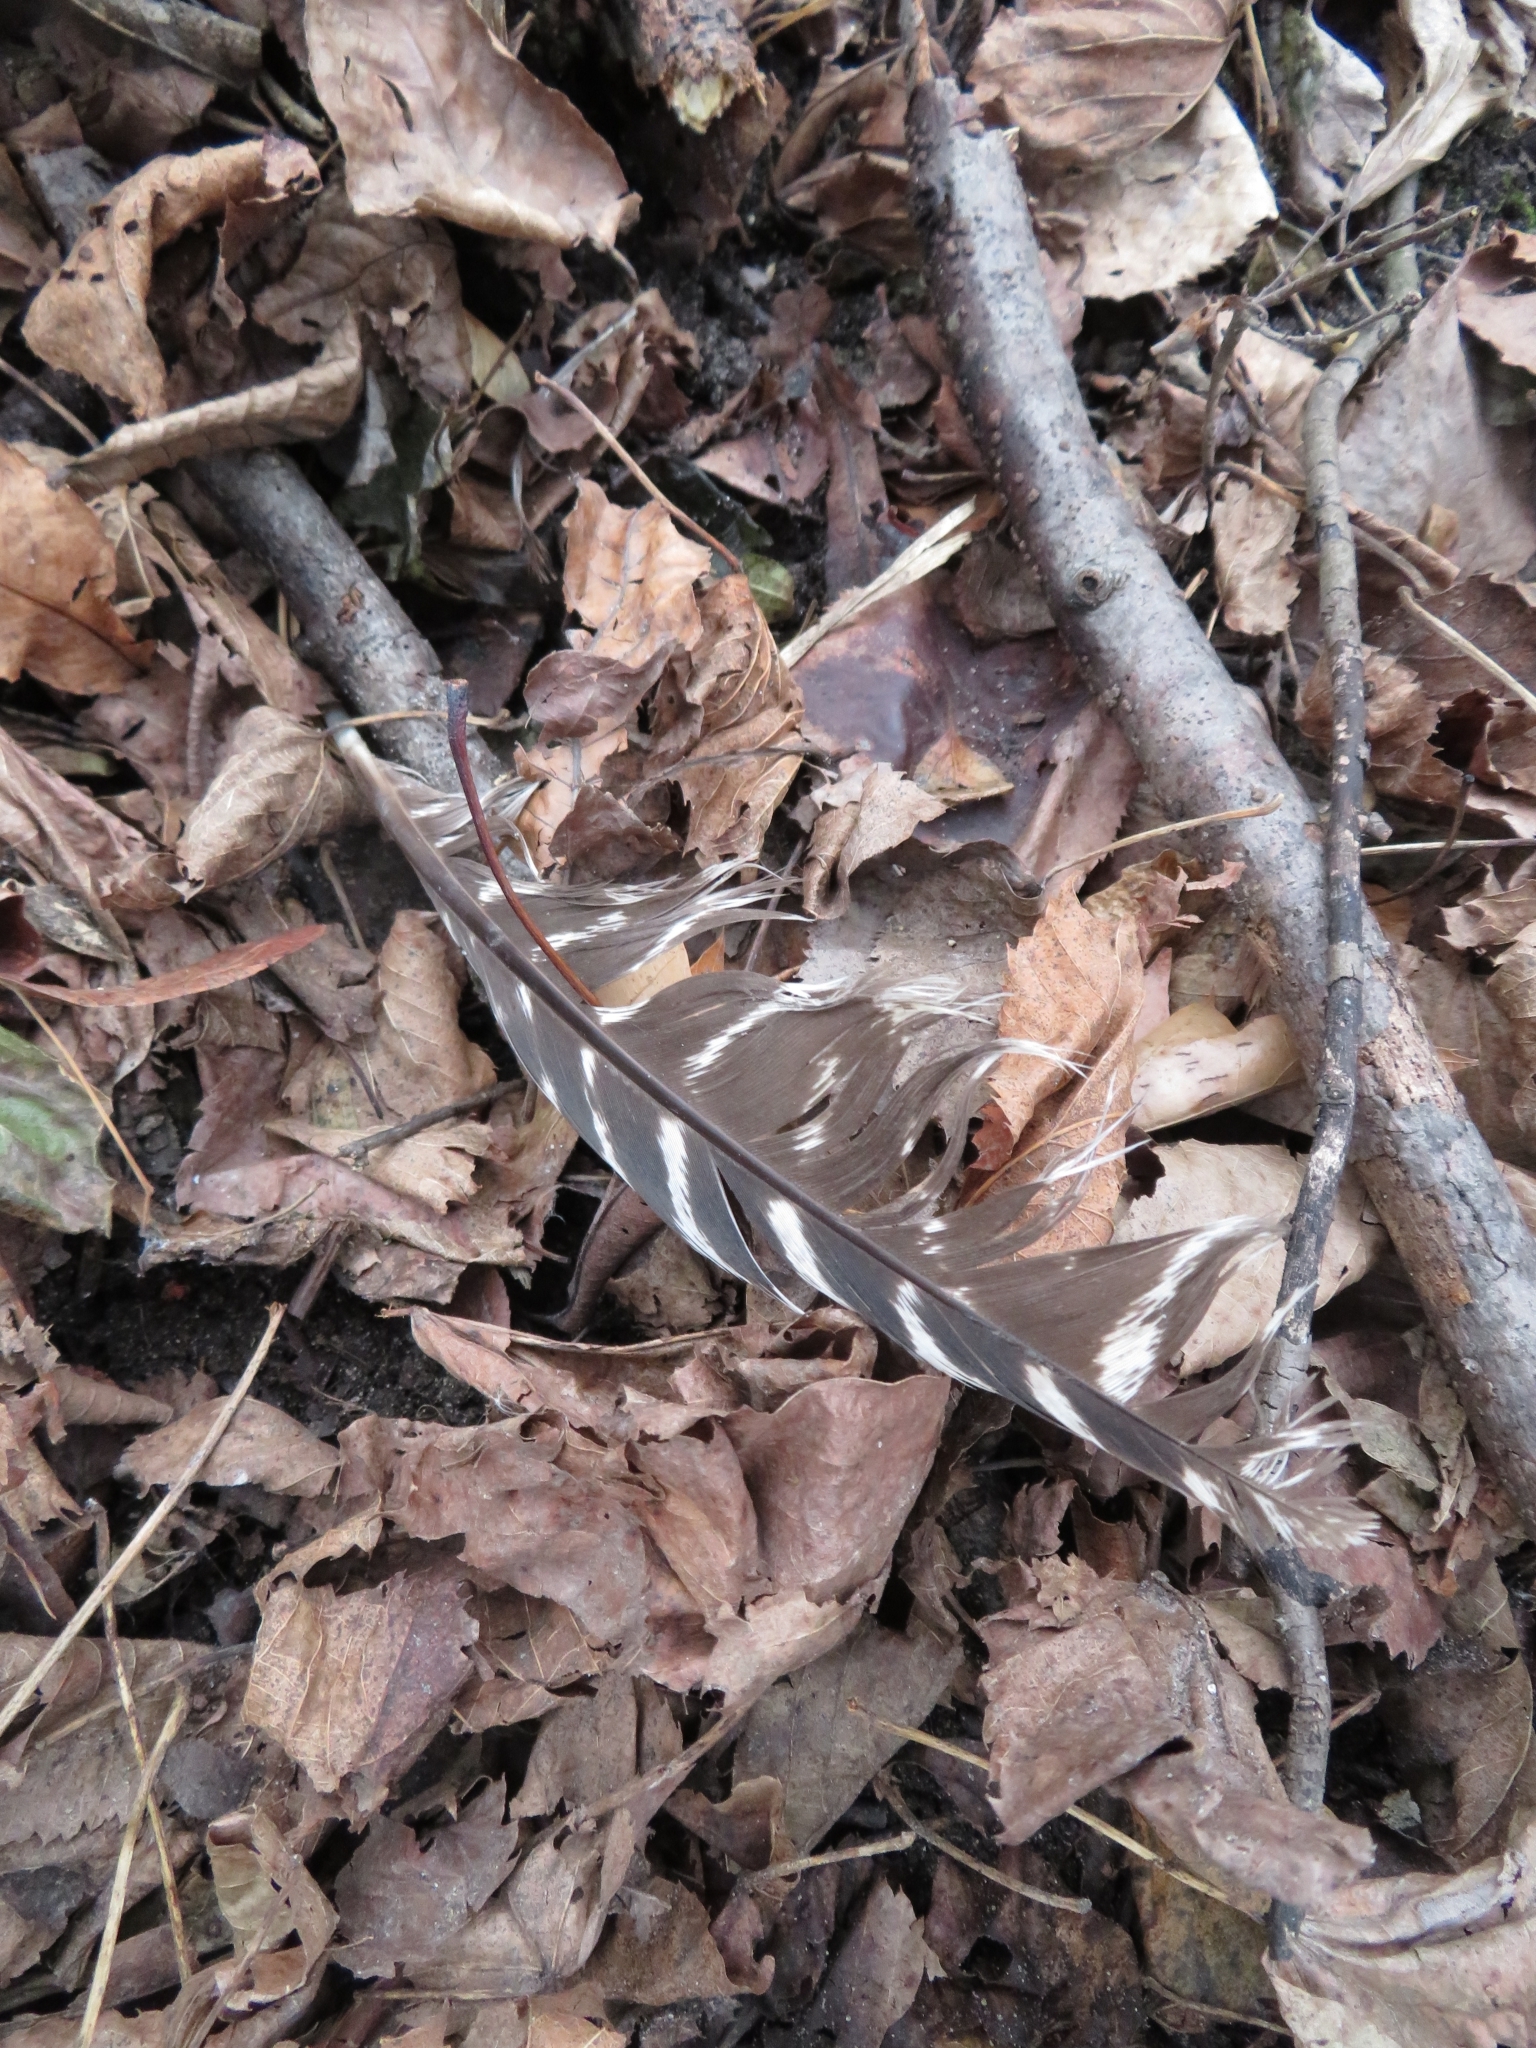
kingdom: Animalia
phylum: Chordata
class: Aves
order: Galliformes
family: Phasianidae
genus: Meleagris
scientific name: Meleagris gallopavo
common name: Wild turkey
